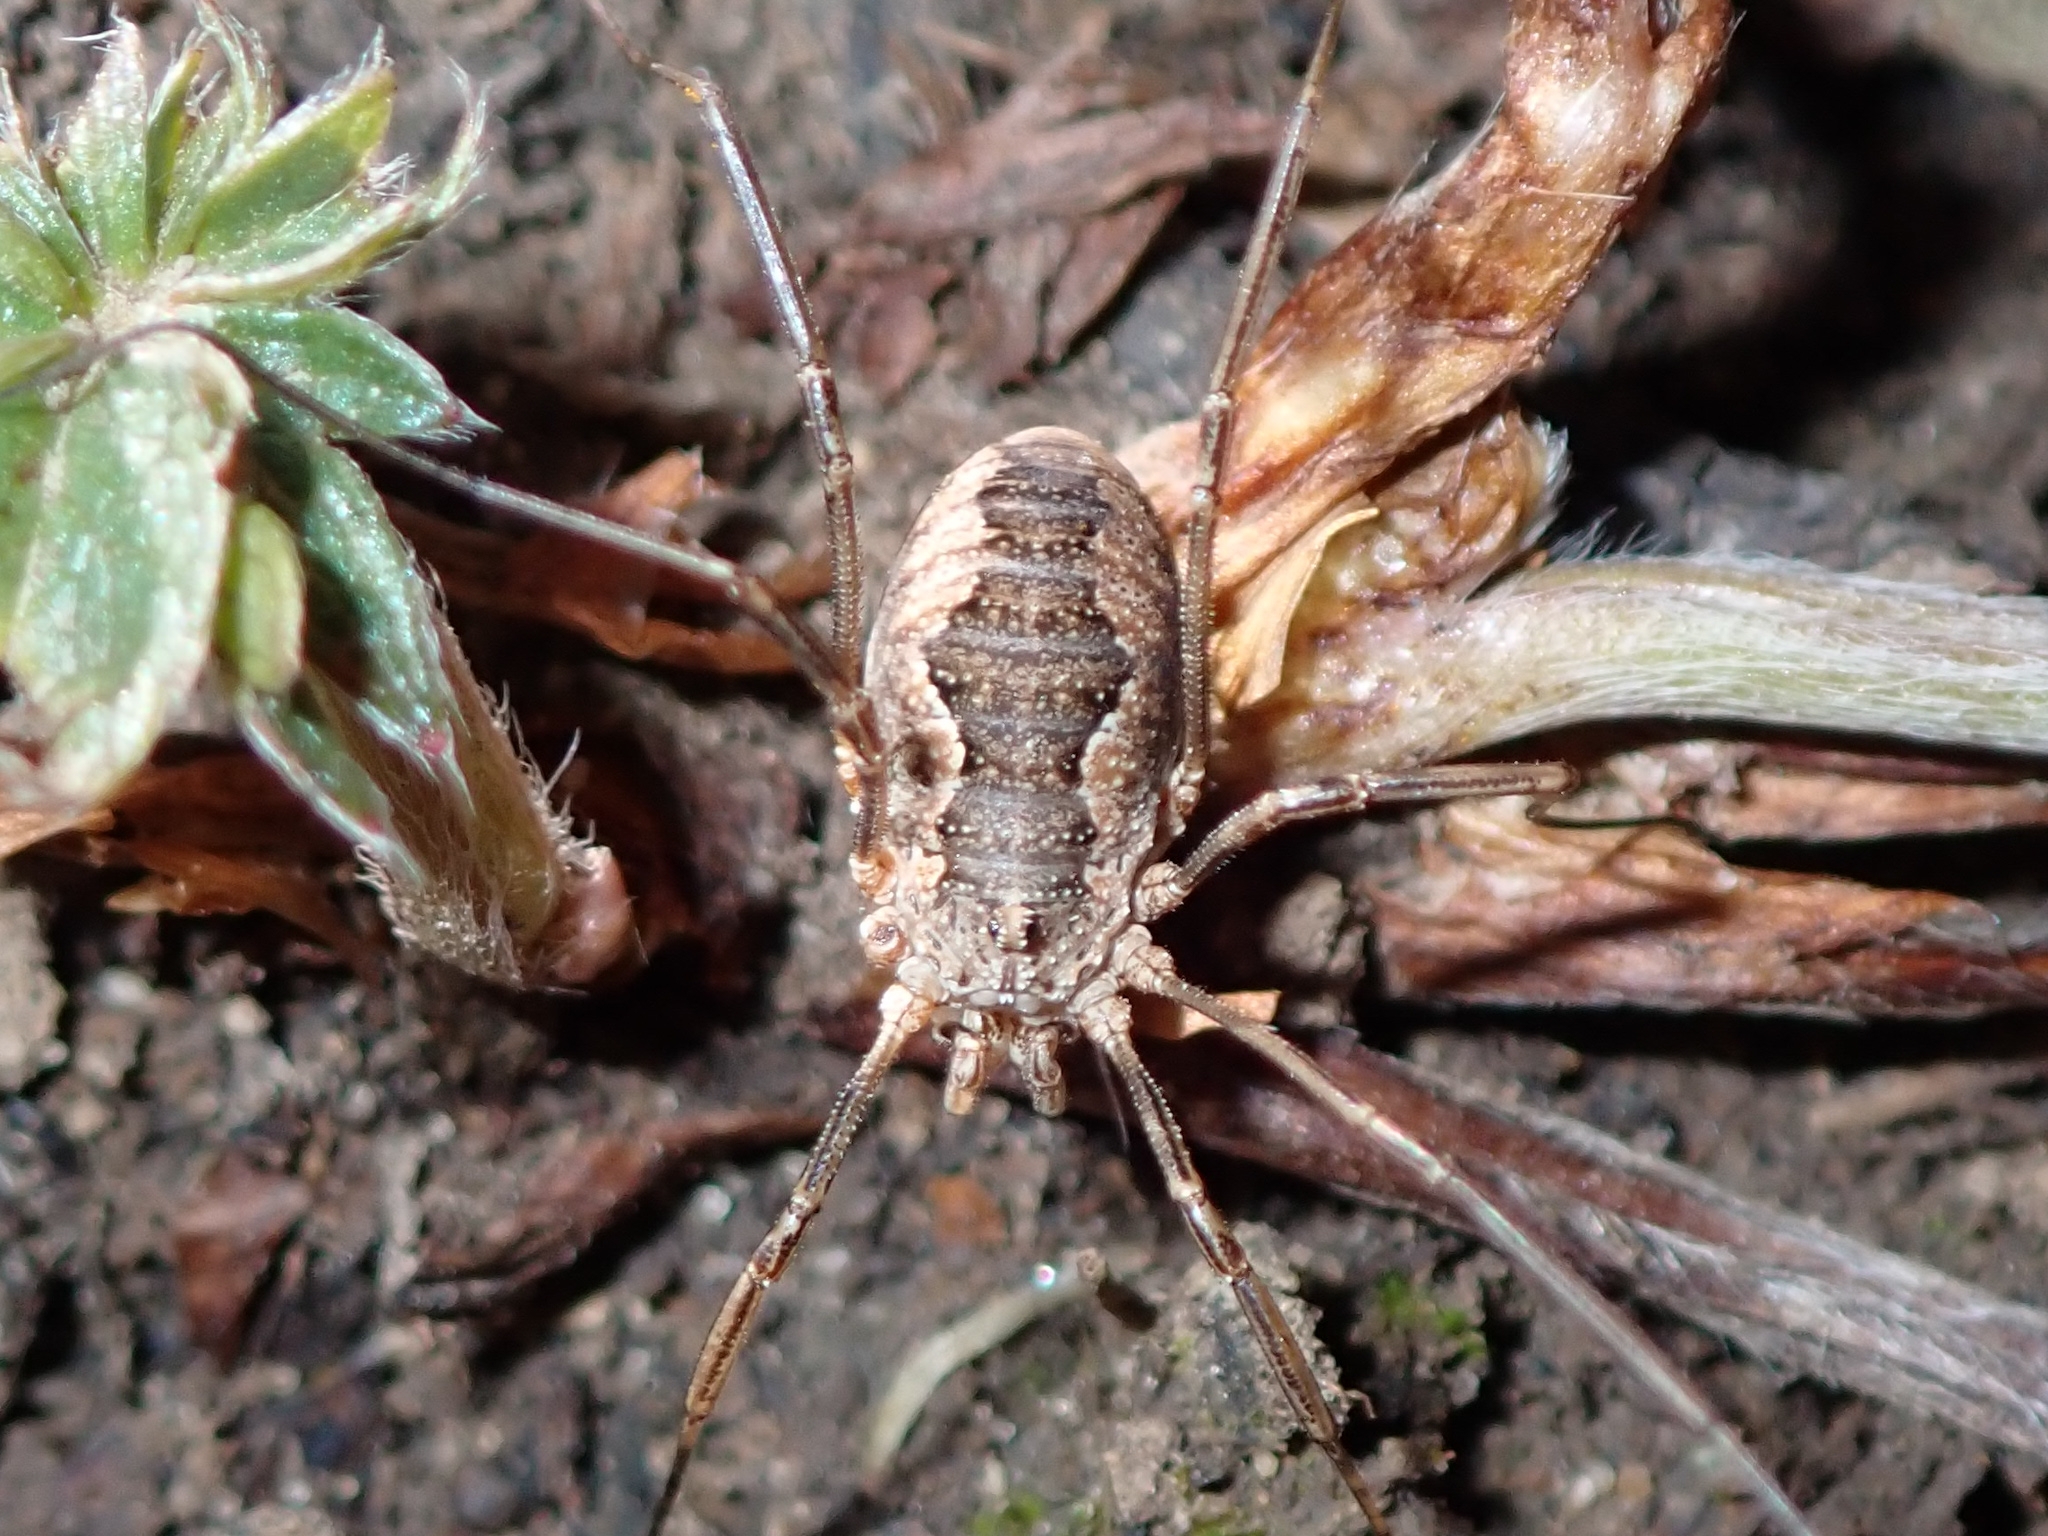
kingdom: Animalia
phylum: Arthropoda
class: Arachnida
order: Opiliones
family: Phalangiidae
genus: Phalangium
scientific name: Phalangium opilio
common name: Daddy longleg
